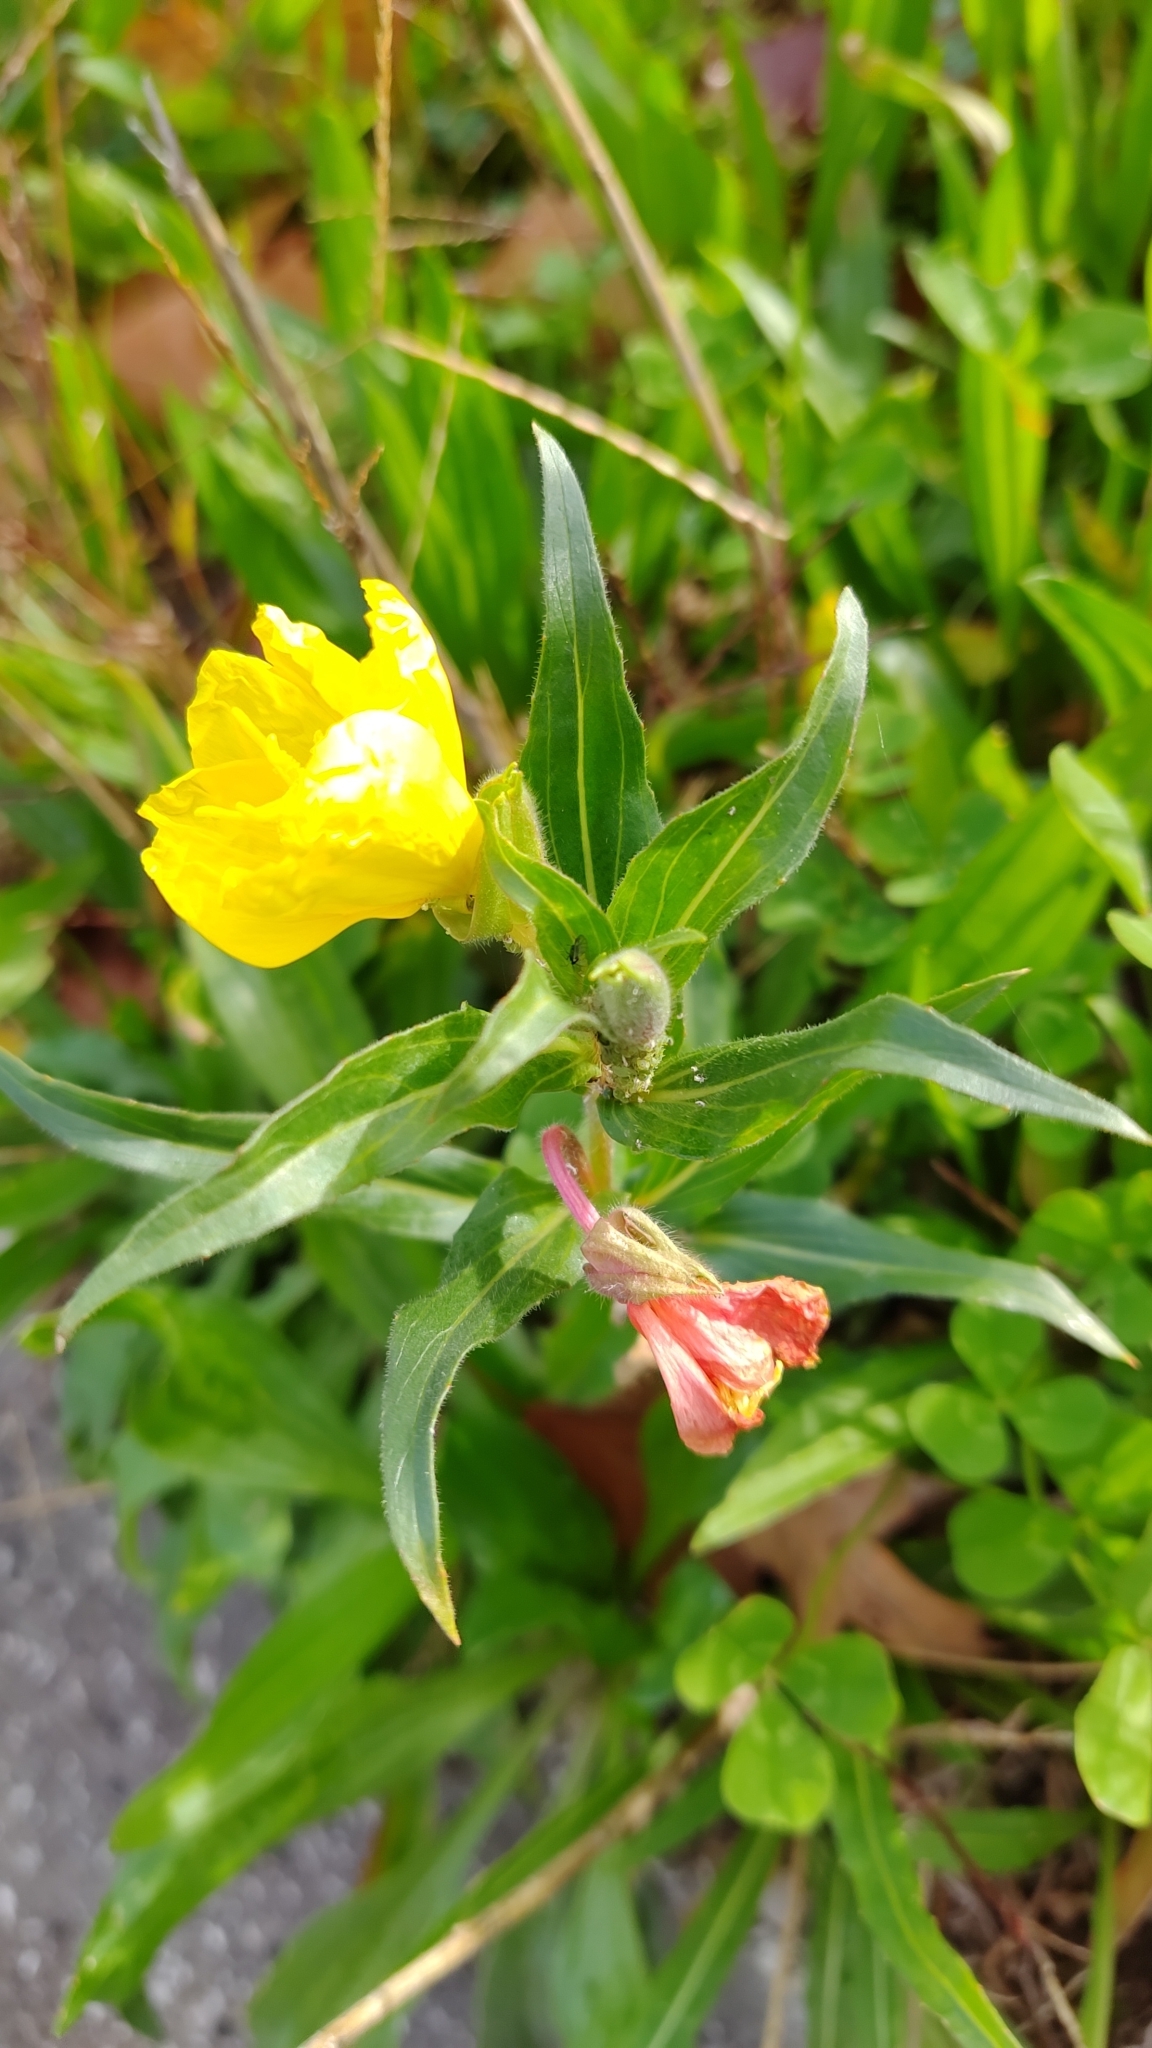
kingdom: Plantae
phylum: Tracheophyta
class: Magnoliopsida
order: Myrtales
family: Onagraceae
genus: Oenothera
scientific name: Oenothera stricta
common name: Fragrant evening-primrose
